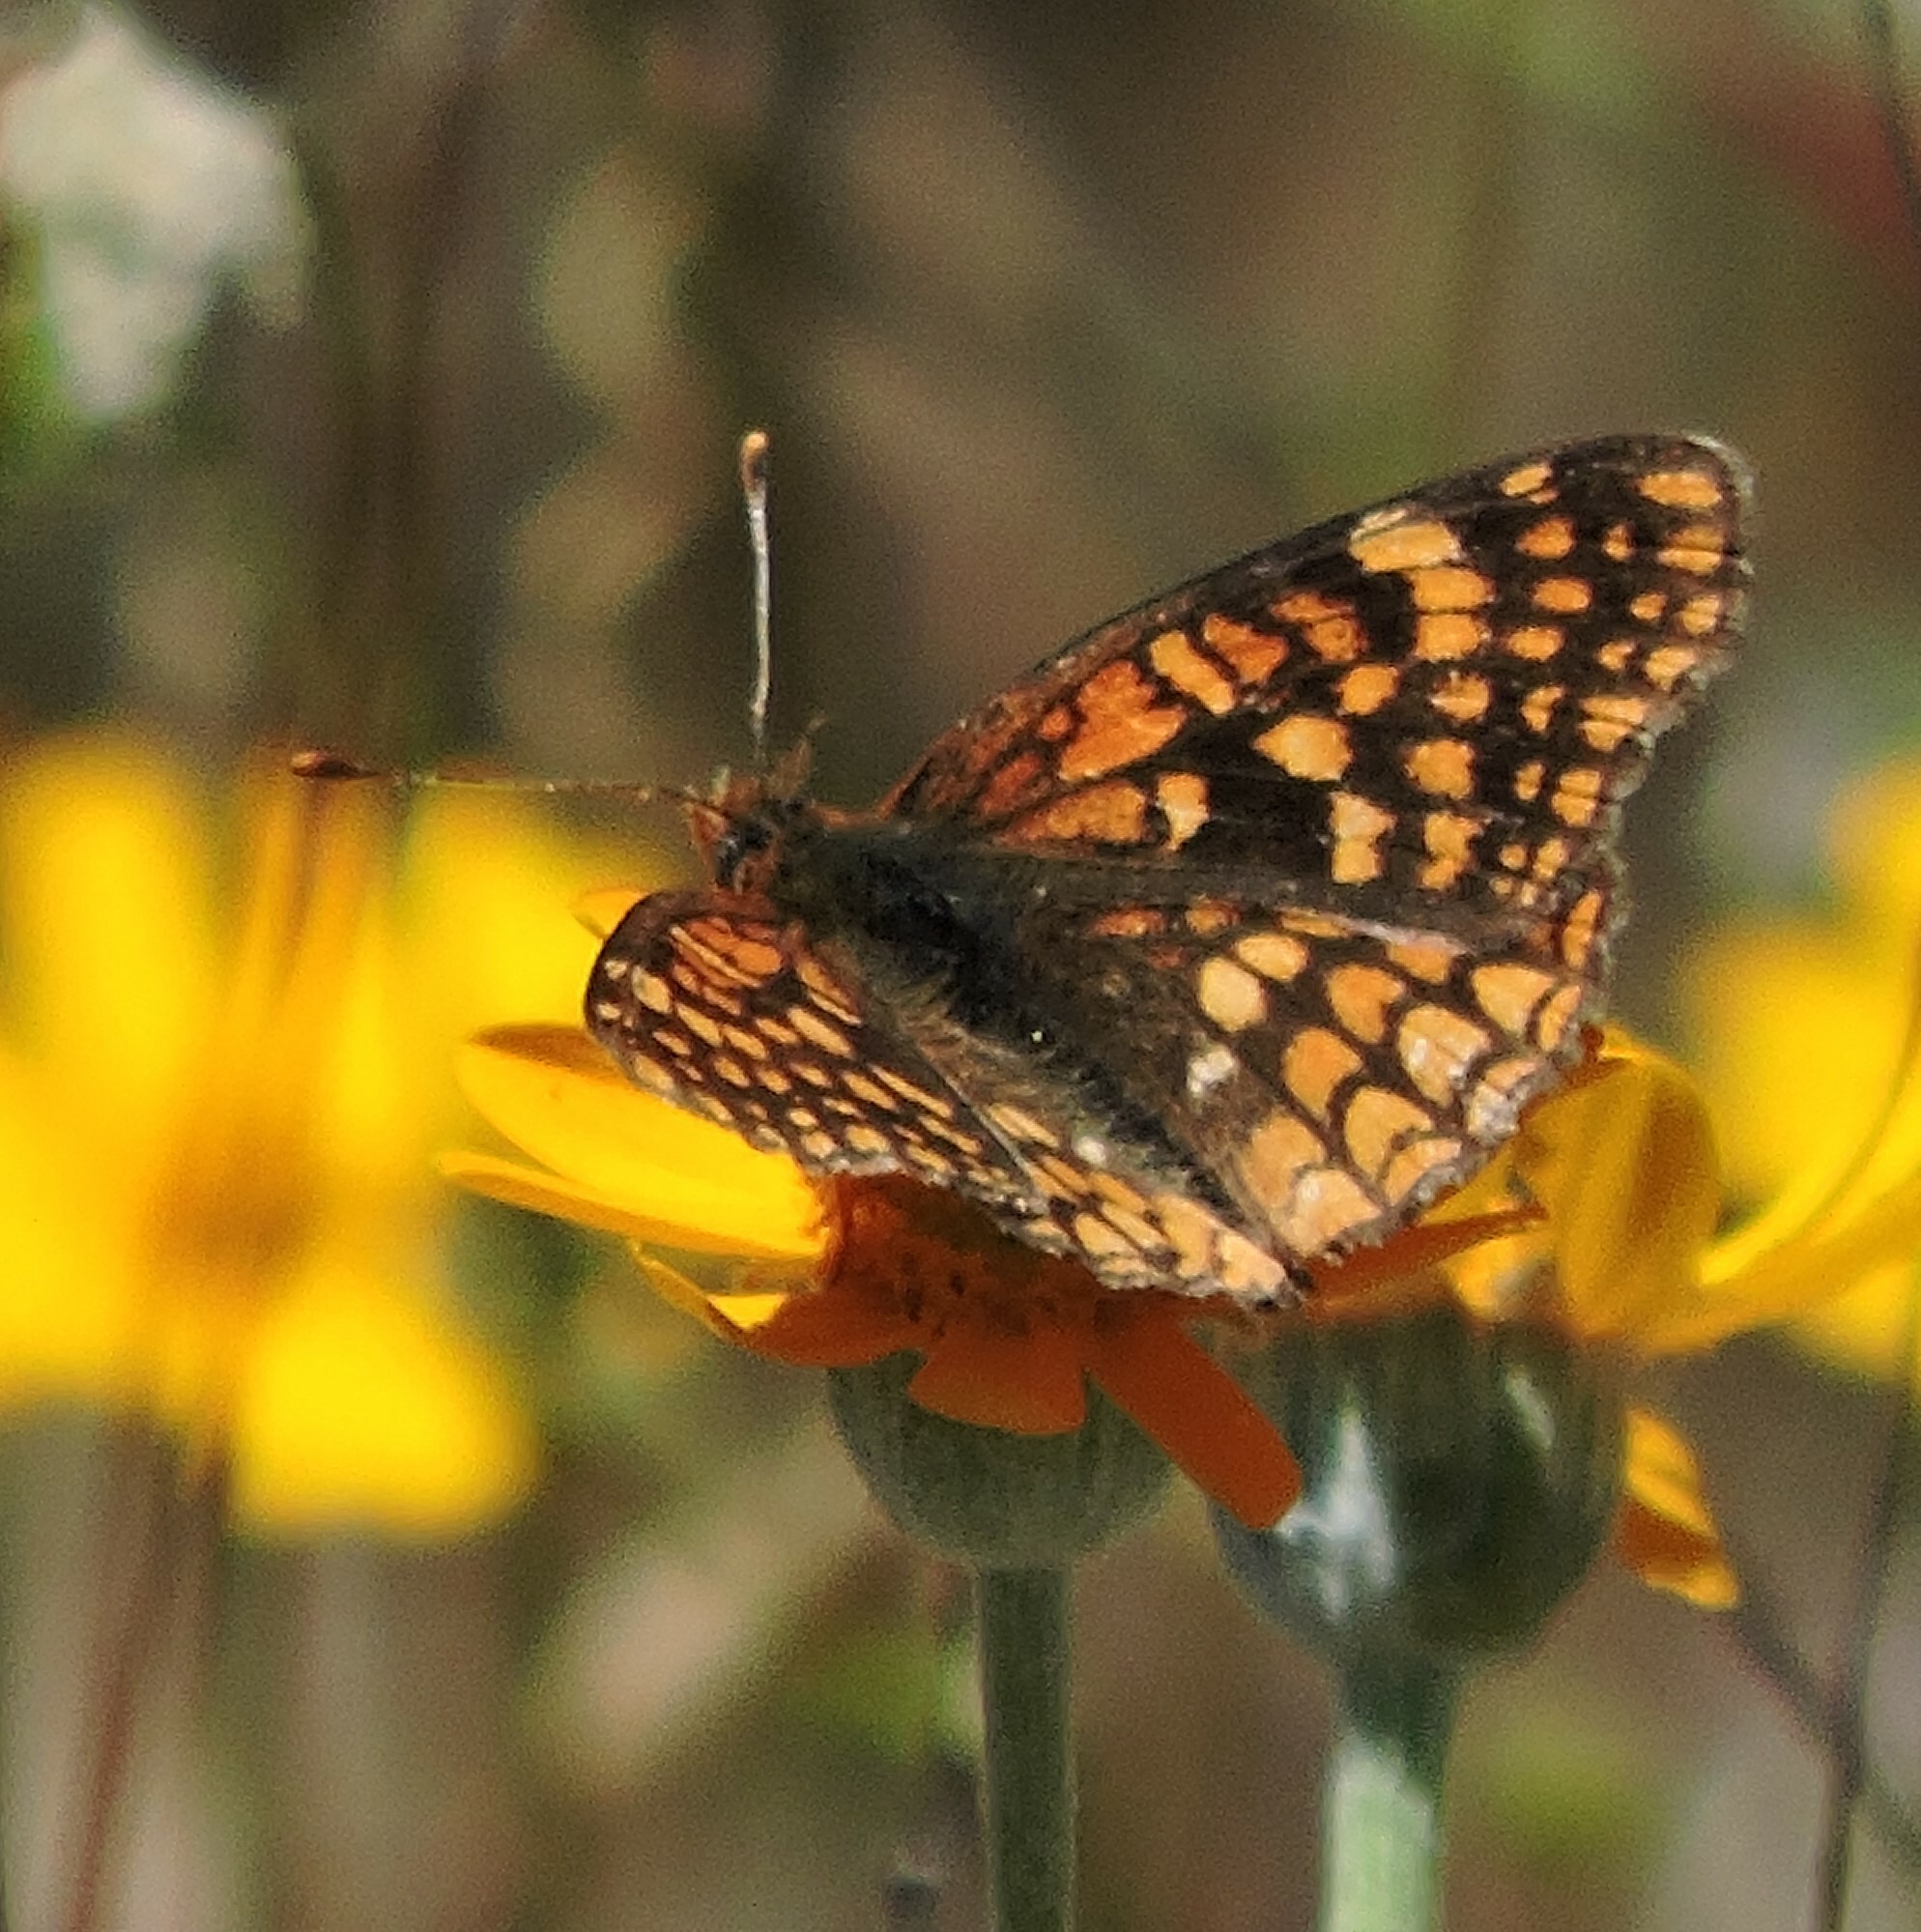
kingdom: Animalia
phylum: Arthropoda
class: Insecta
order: Lepidoptera
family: Nymphalidae
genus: Chlosyne
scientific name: Chlosyne palla
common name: Northern checkerspot
